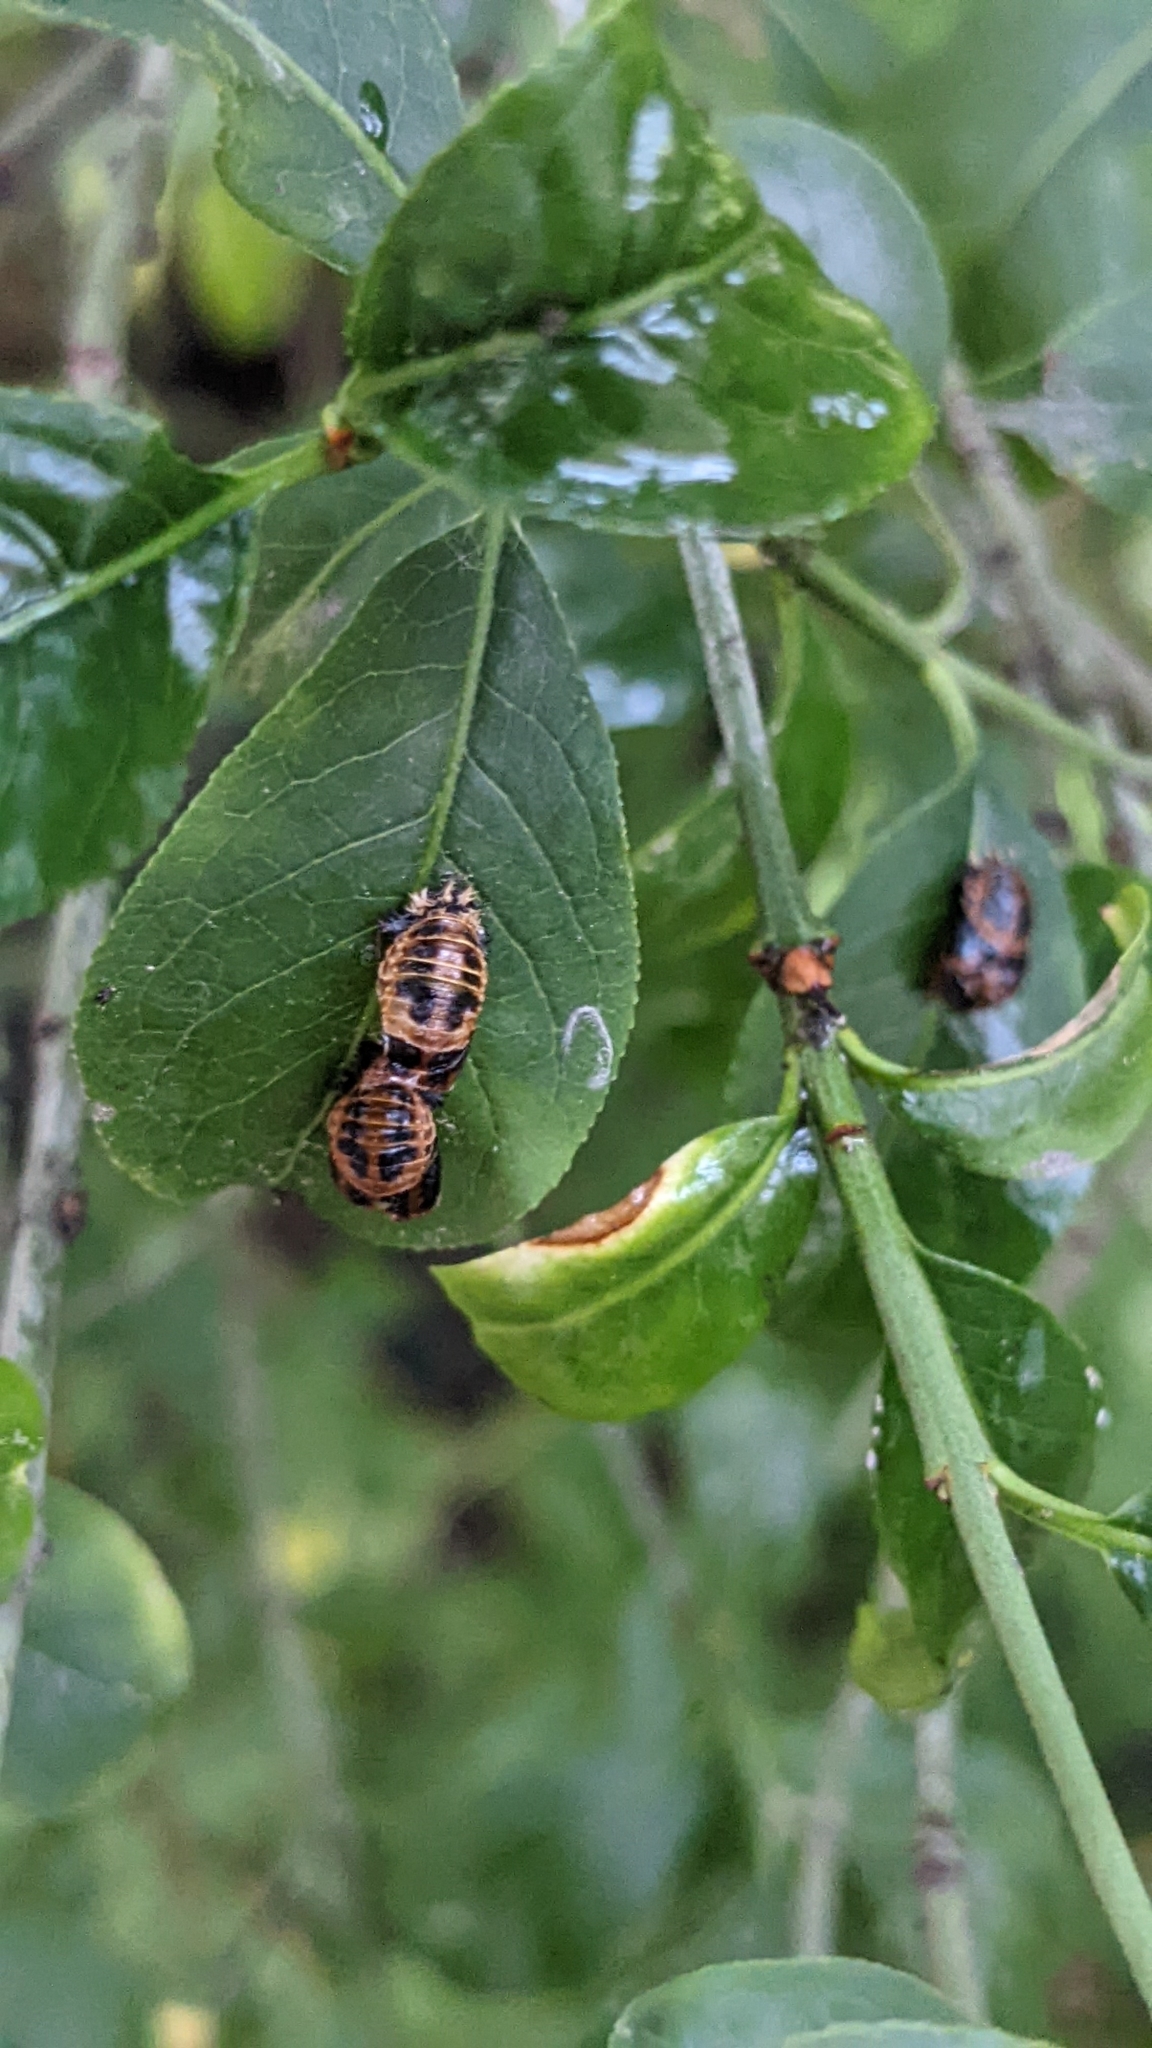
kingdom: Animalia
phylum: Arthropoda
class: Insecta
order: Coleoptera
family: Coccinellidae
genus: Harmonia
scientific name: Harmonia axyridis
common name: Harlequin ladybird
